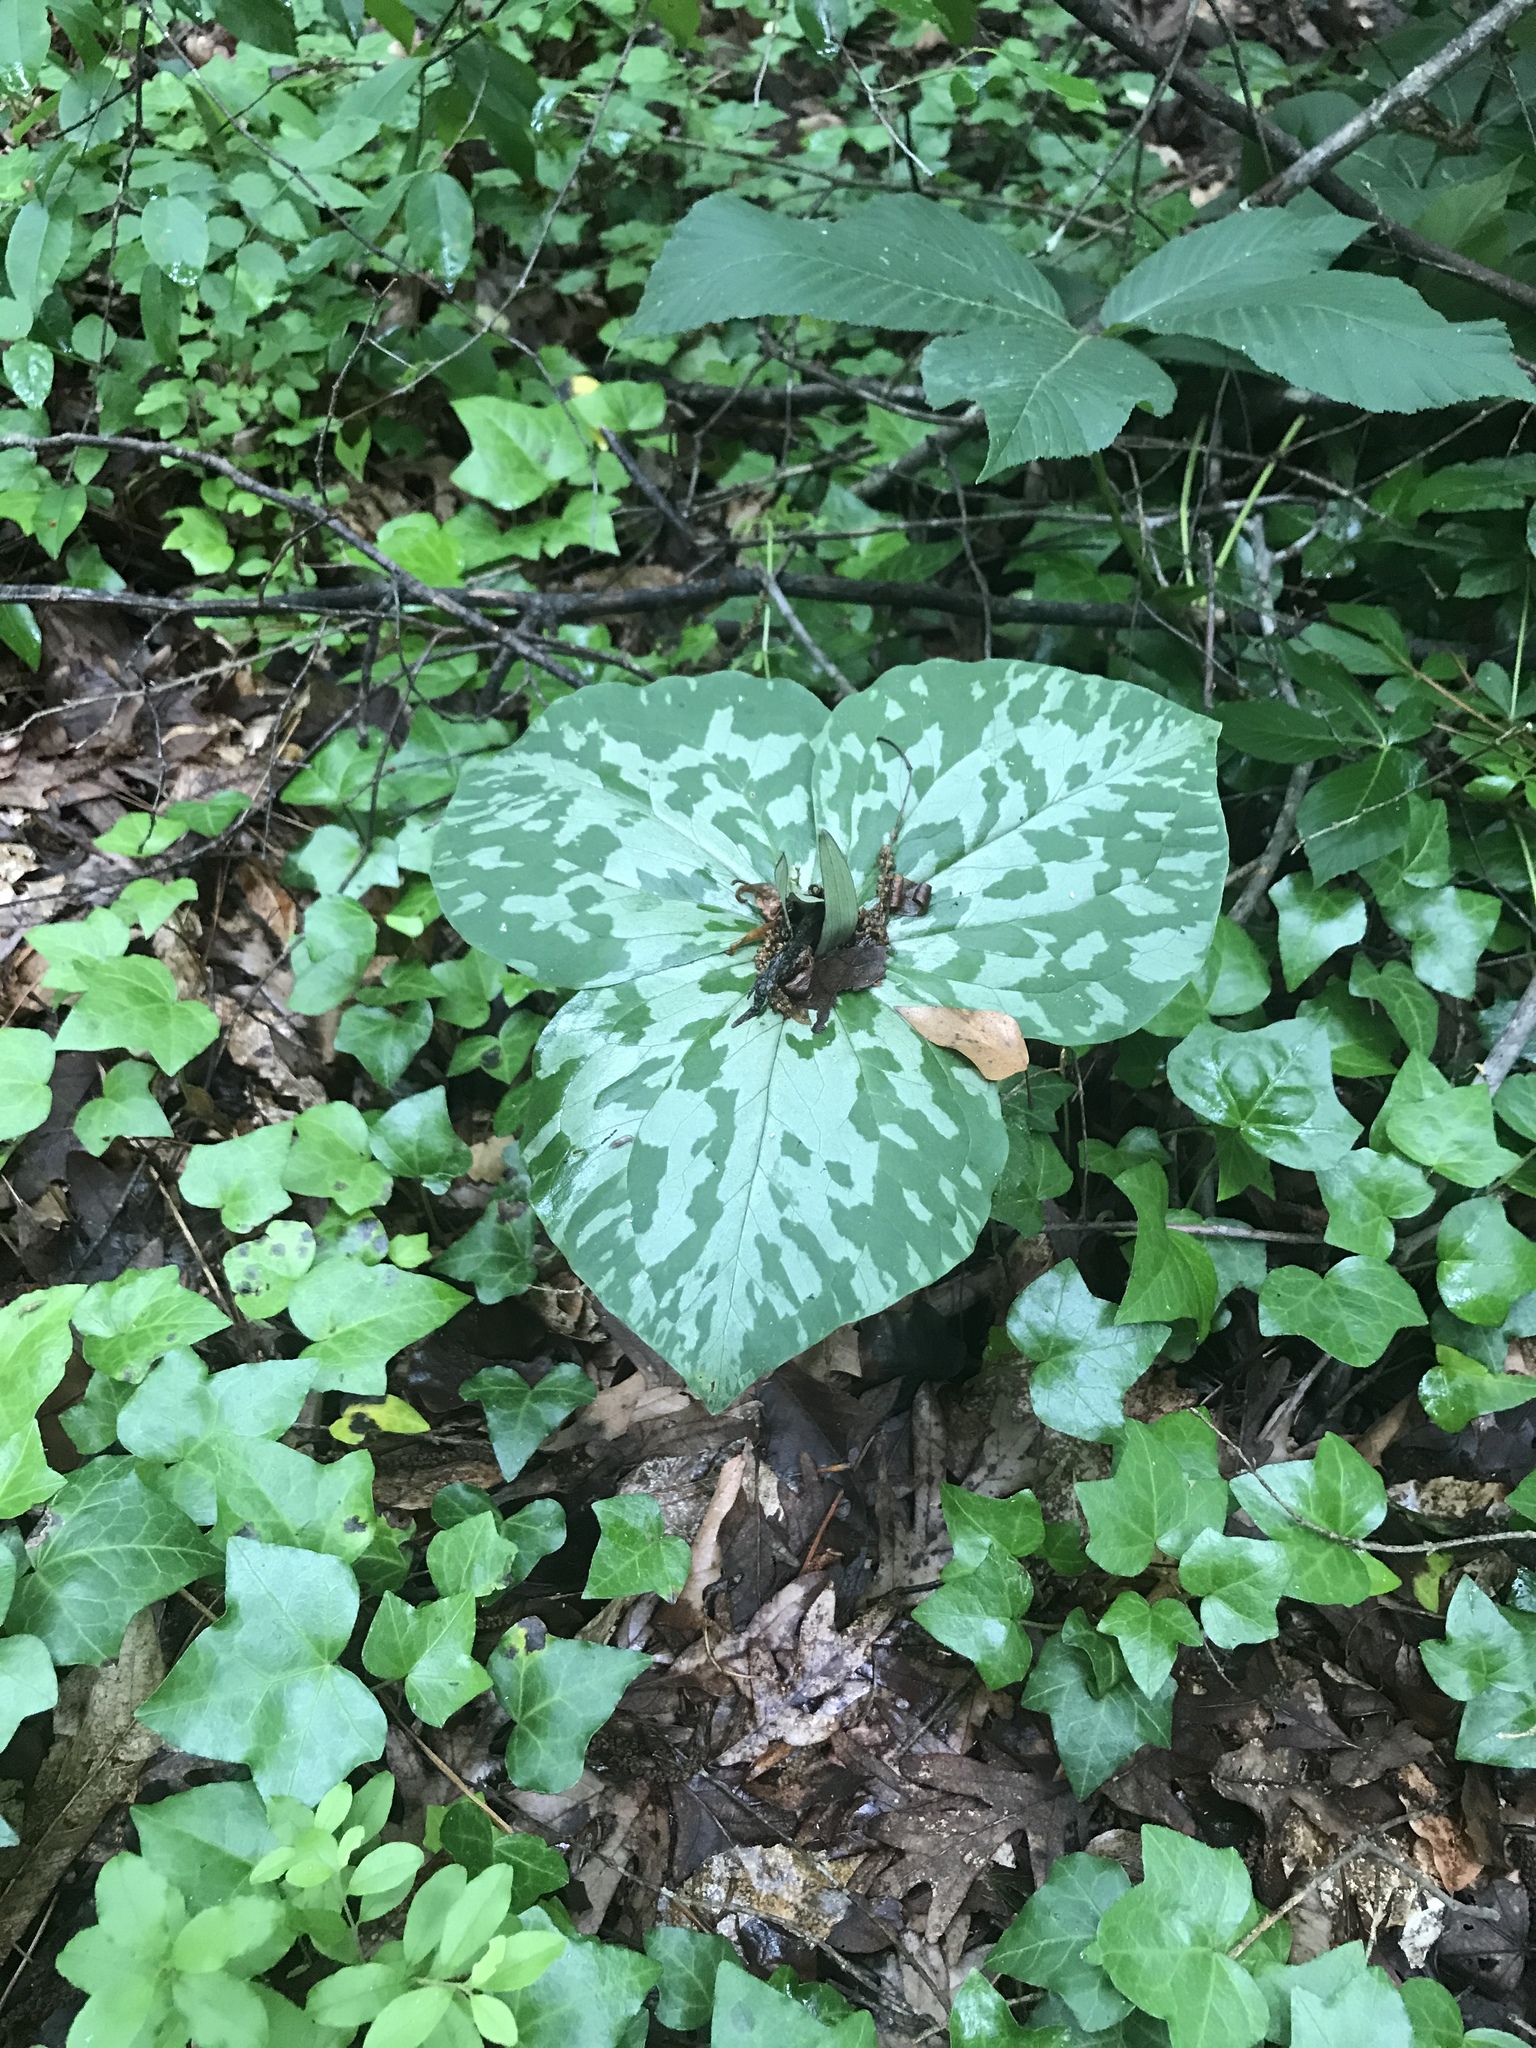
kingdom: Plantae
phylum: Tracheophyta
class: Liliopsida
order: Liliales
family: Melanthiaceae
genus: Trillium
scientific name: Trillium cuneatum
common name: Cuneate trillium
